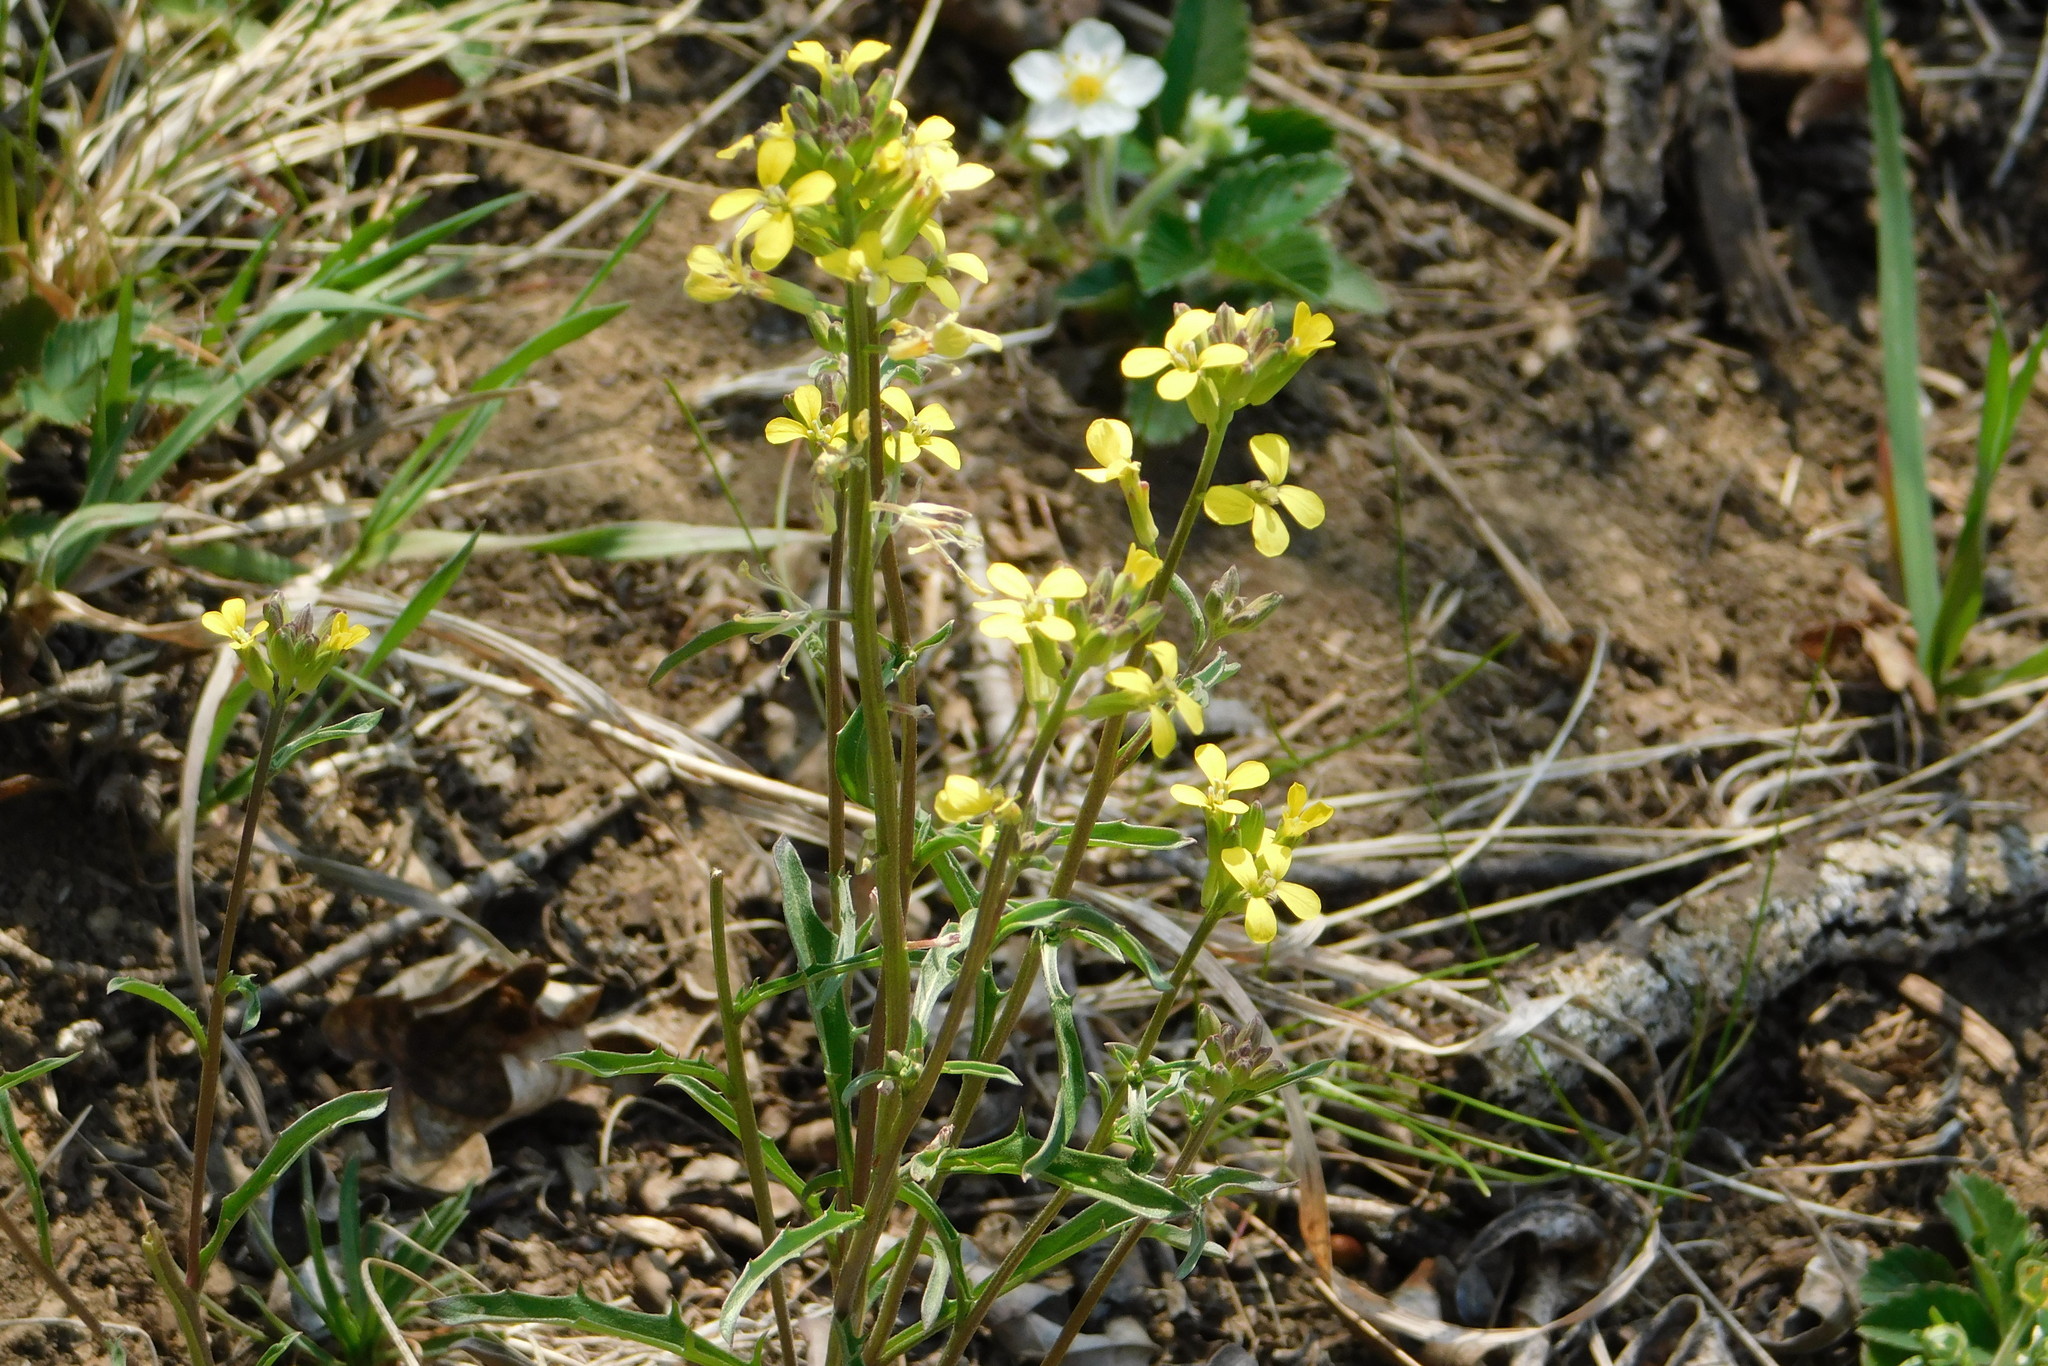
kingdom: Plantae
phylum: Tracheophyta
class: Magnoliopsida
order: Brassicales
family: Brassicaceae
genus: Erysimum
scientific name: Erysimum crepidifolium
